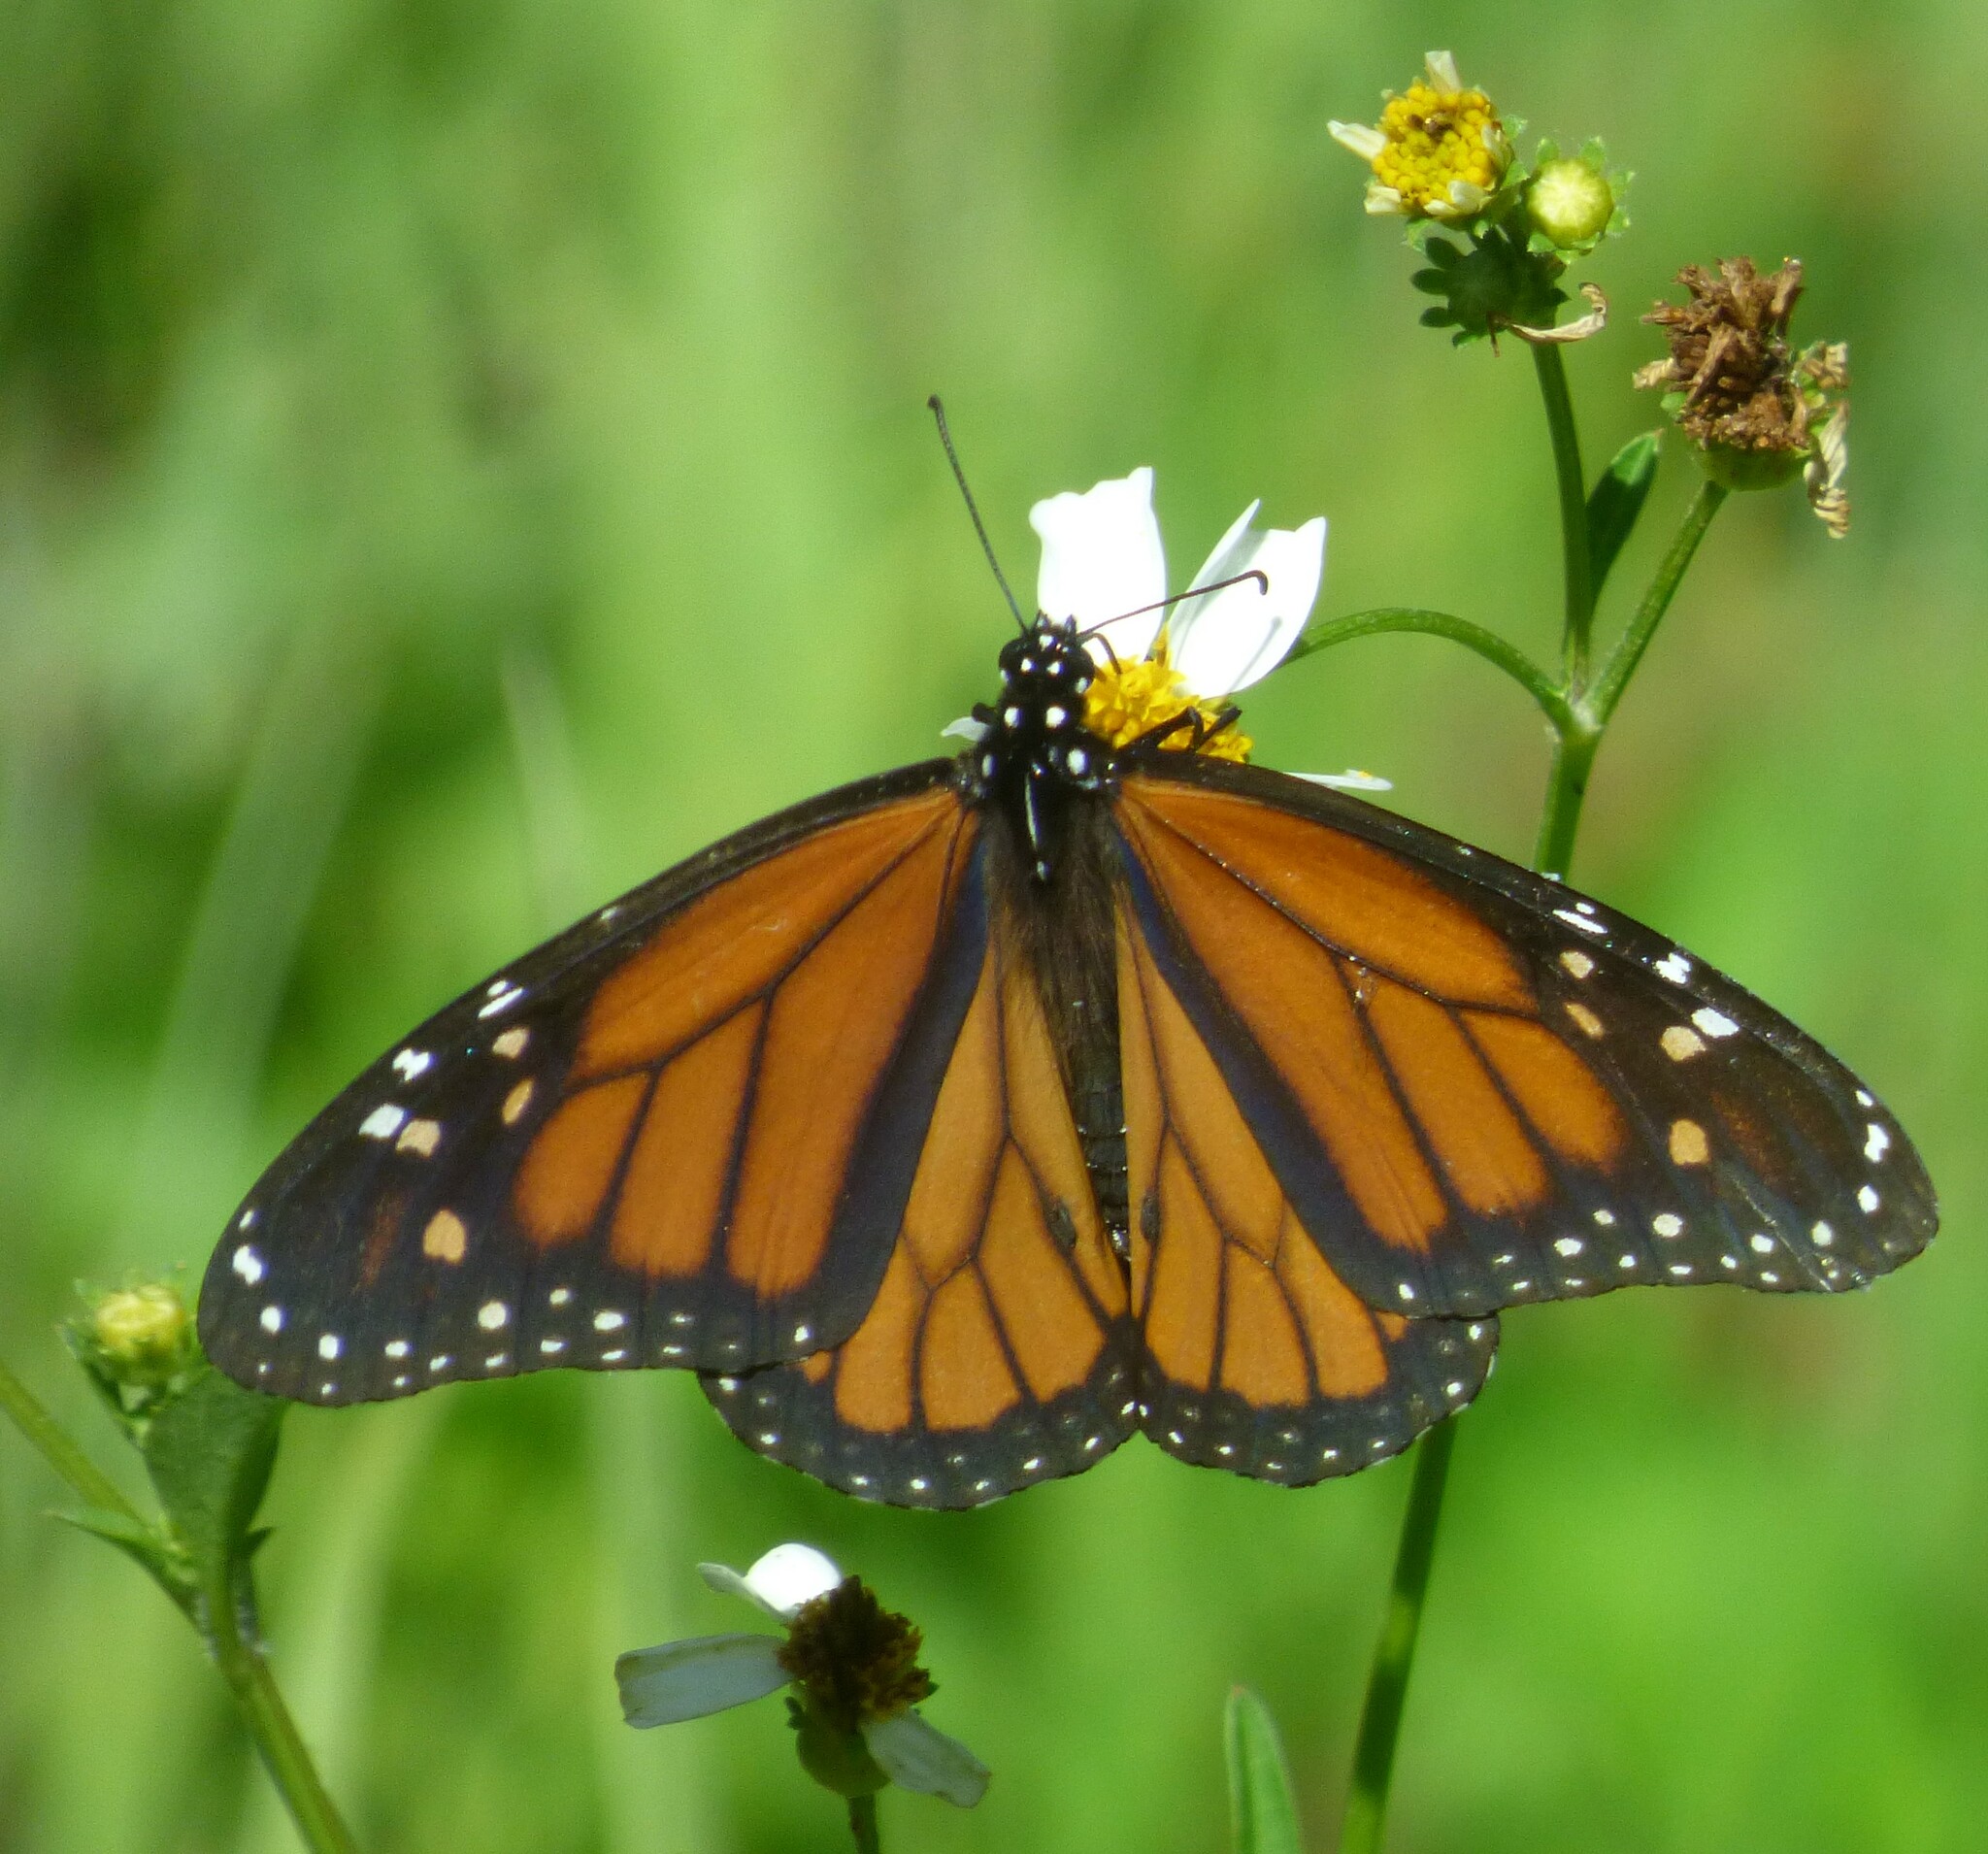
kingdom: Animalia
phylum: Arthropoda
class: Insecta
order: Lepidoptera
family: Nymphalidae
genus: Danaus
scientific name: Danaus plexippus
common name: Monarch
